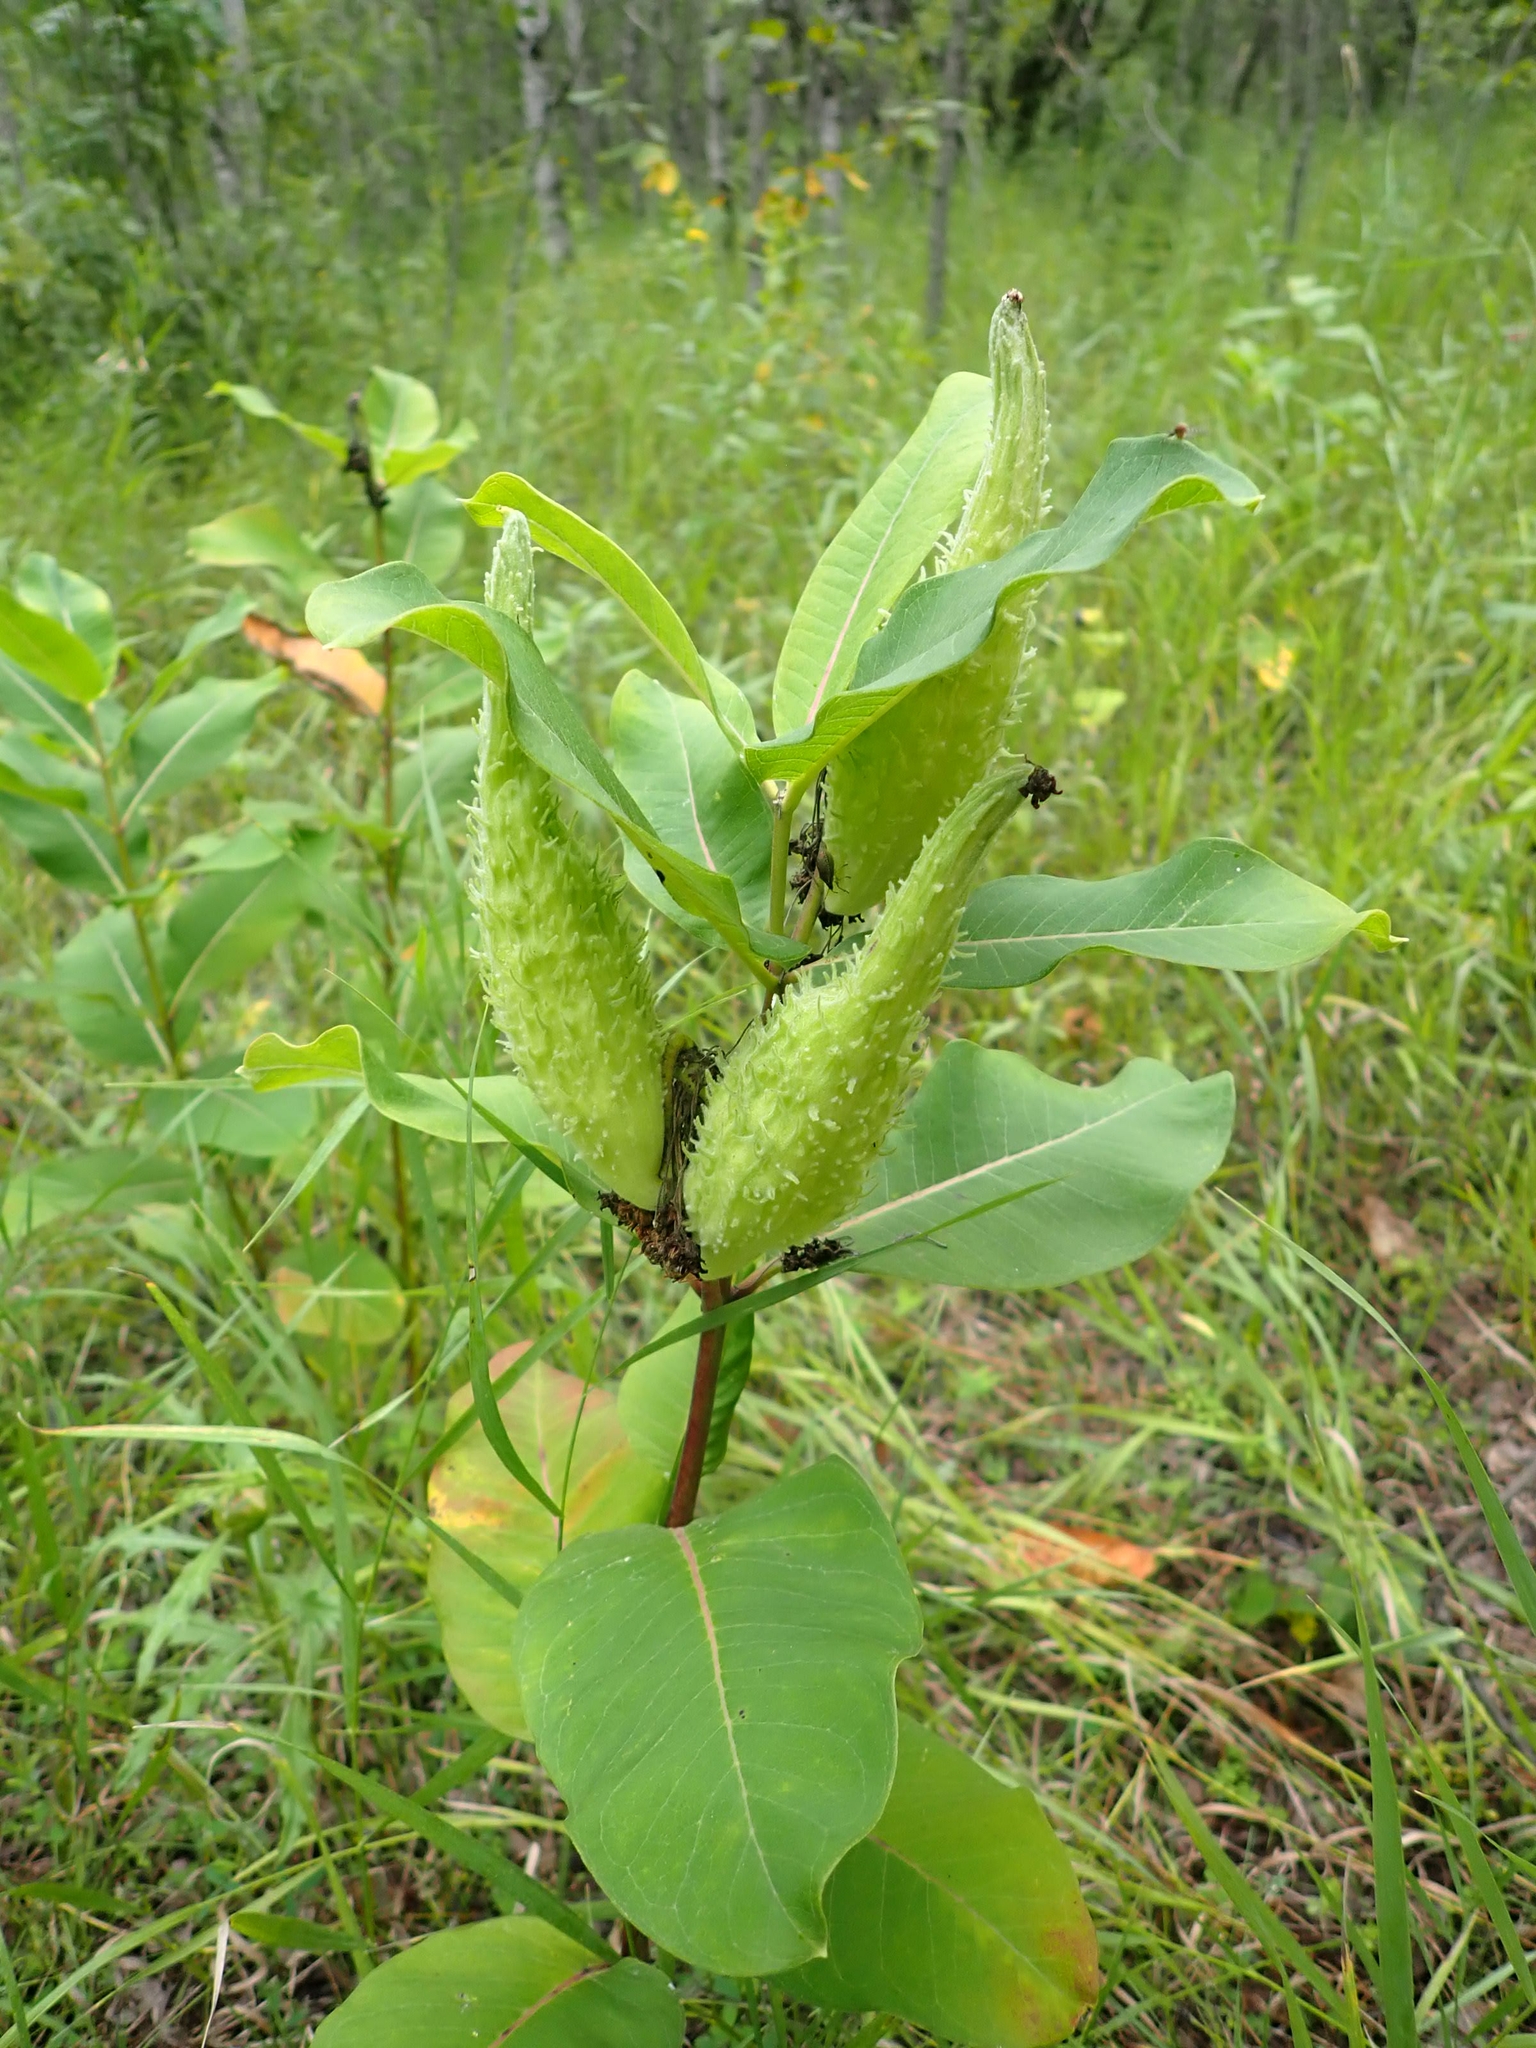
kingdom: Plantae
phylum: Tracheophyta
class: Magnoliopsida
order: Gentianales
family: Apocynaceae
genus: Asclepias
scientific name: Asclepias syriaca
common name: Common milkweed
